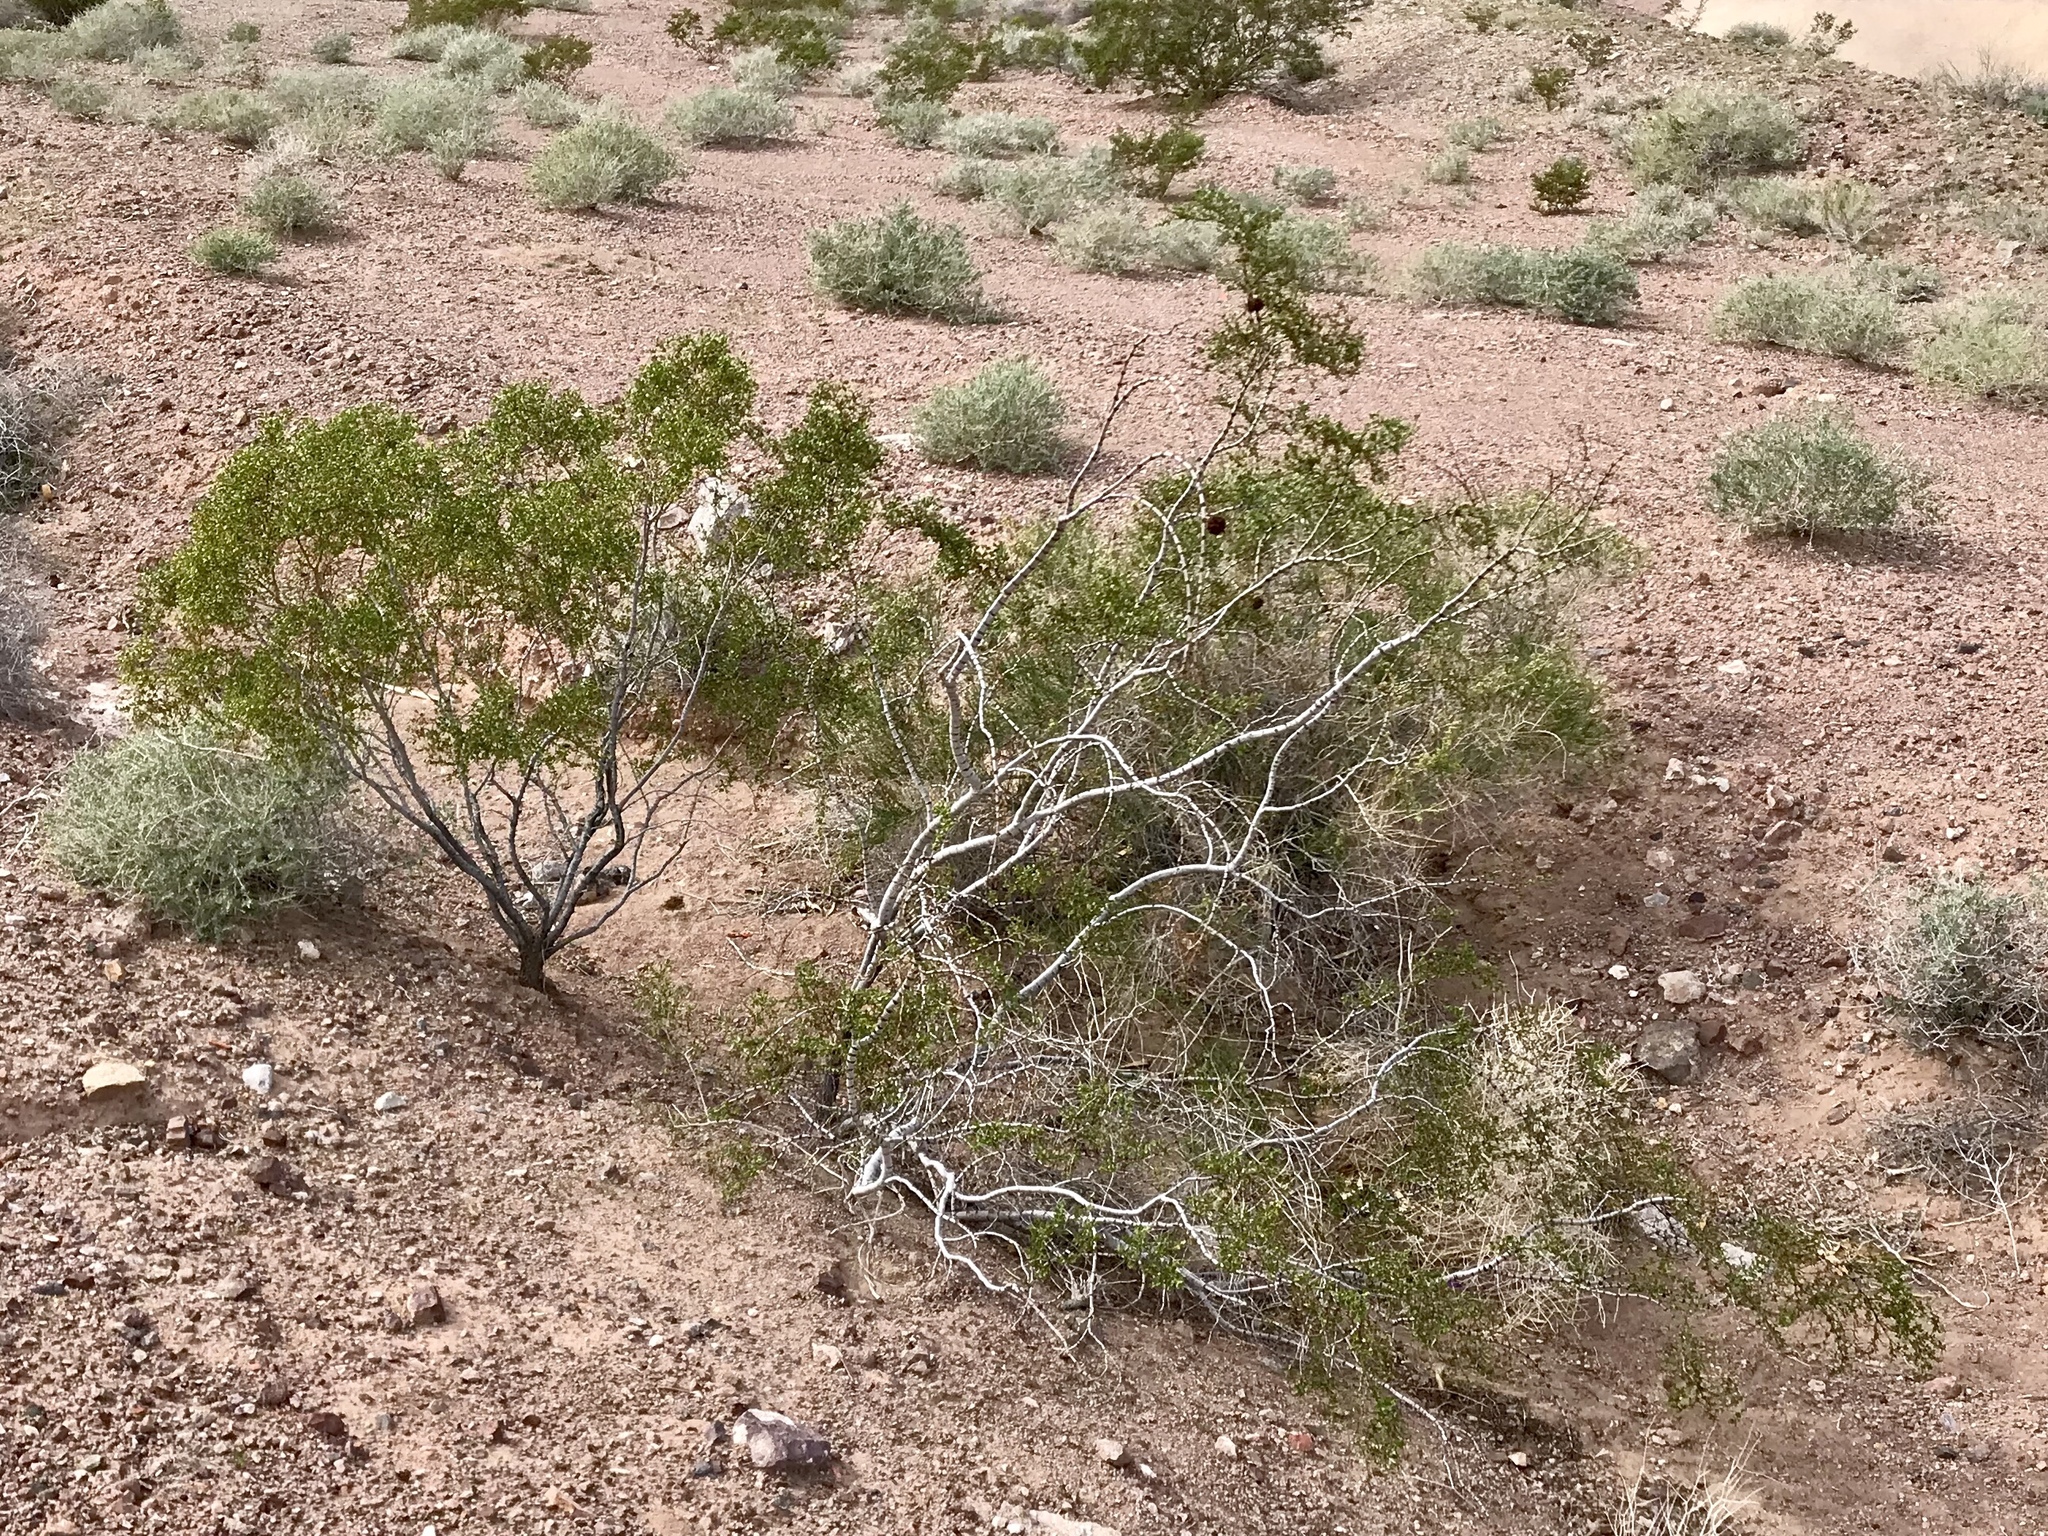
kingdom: Plantae
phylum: Tracheophyta
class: Magnoliopsida
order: Zygophyllales
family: Zygophyllaceae
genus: Larrea
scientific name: Larrea tridentata
